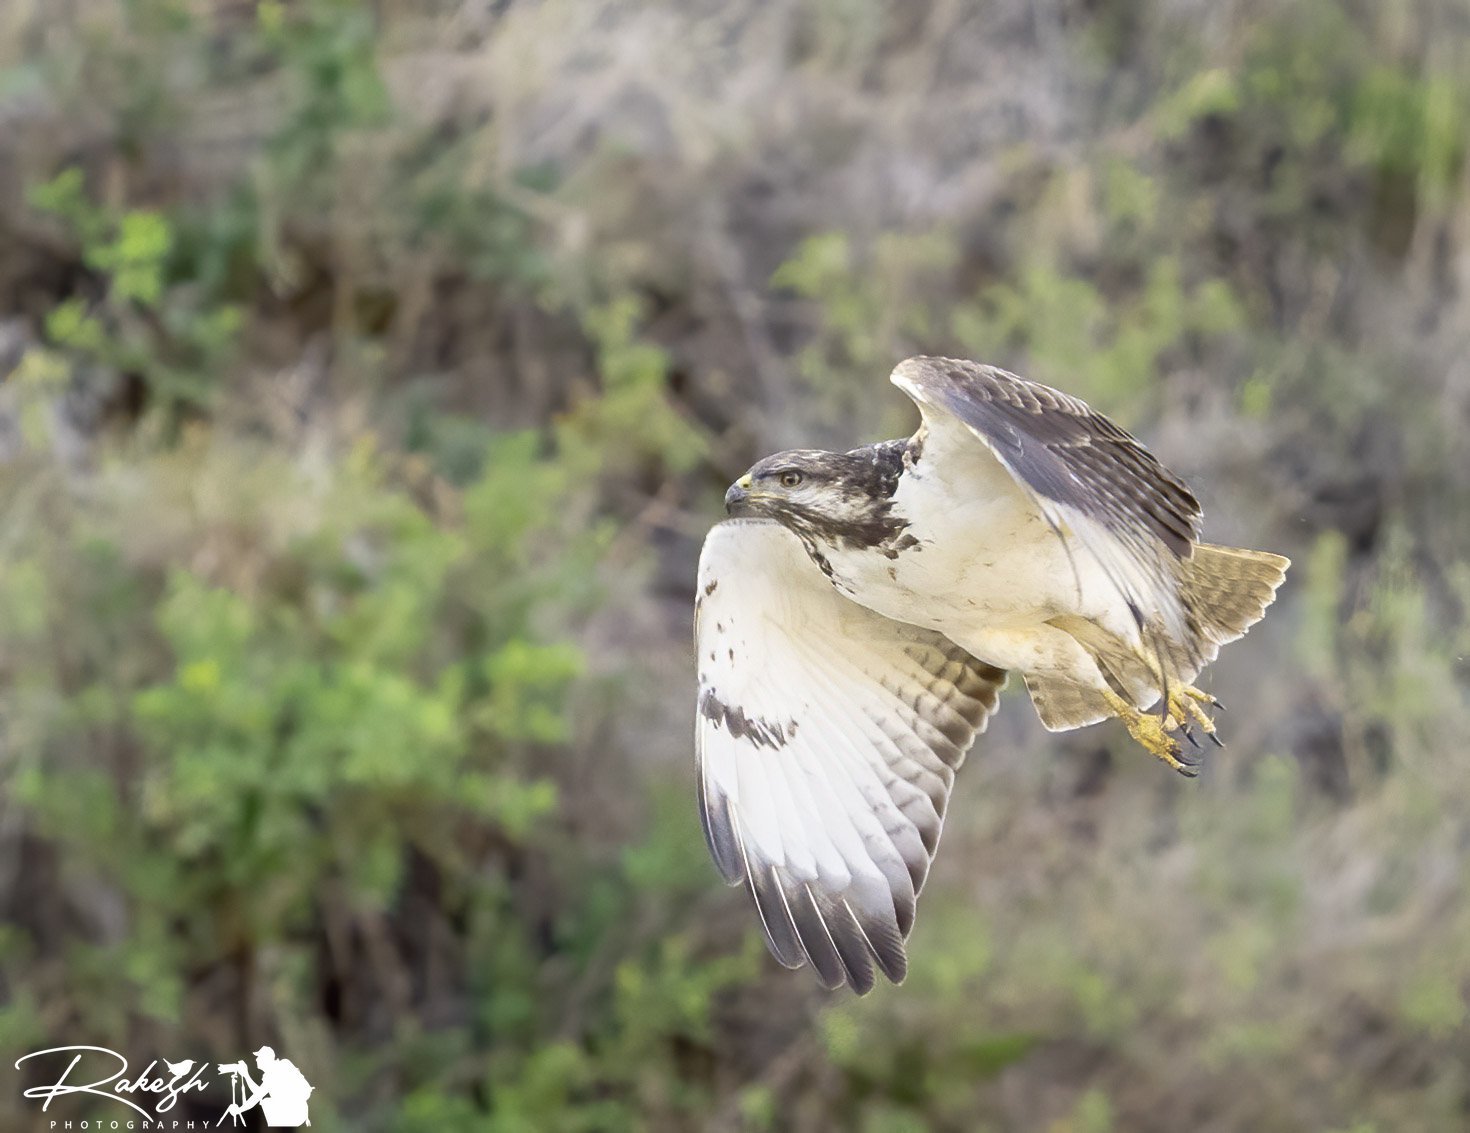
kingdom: Animalia
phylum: Chordata
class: Aves
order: Accipitriformes
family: Accipitridae
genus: Buteo
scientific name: Buteo augur
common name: Augur buzzard
